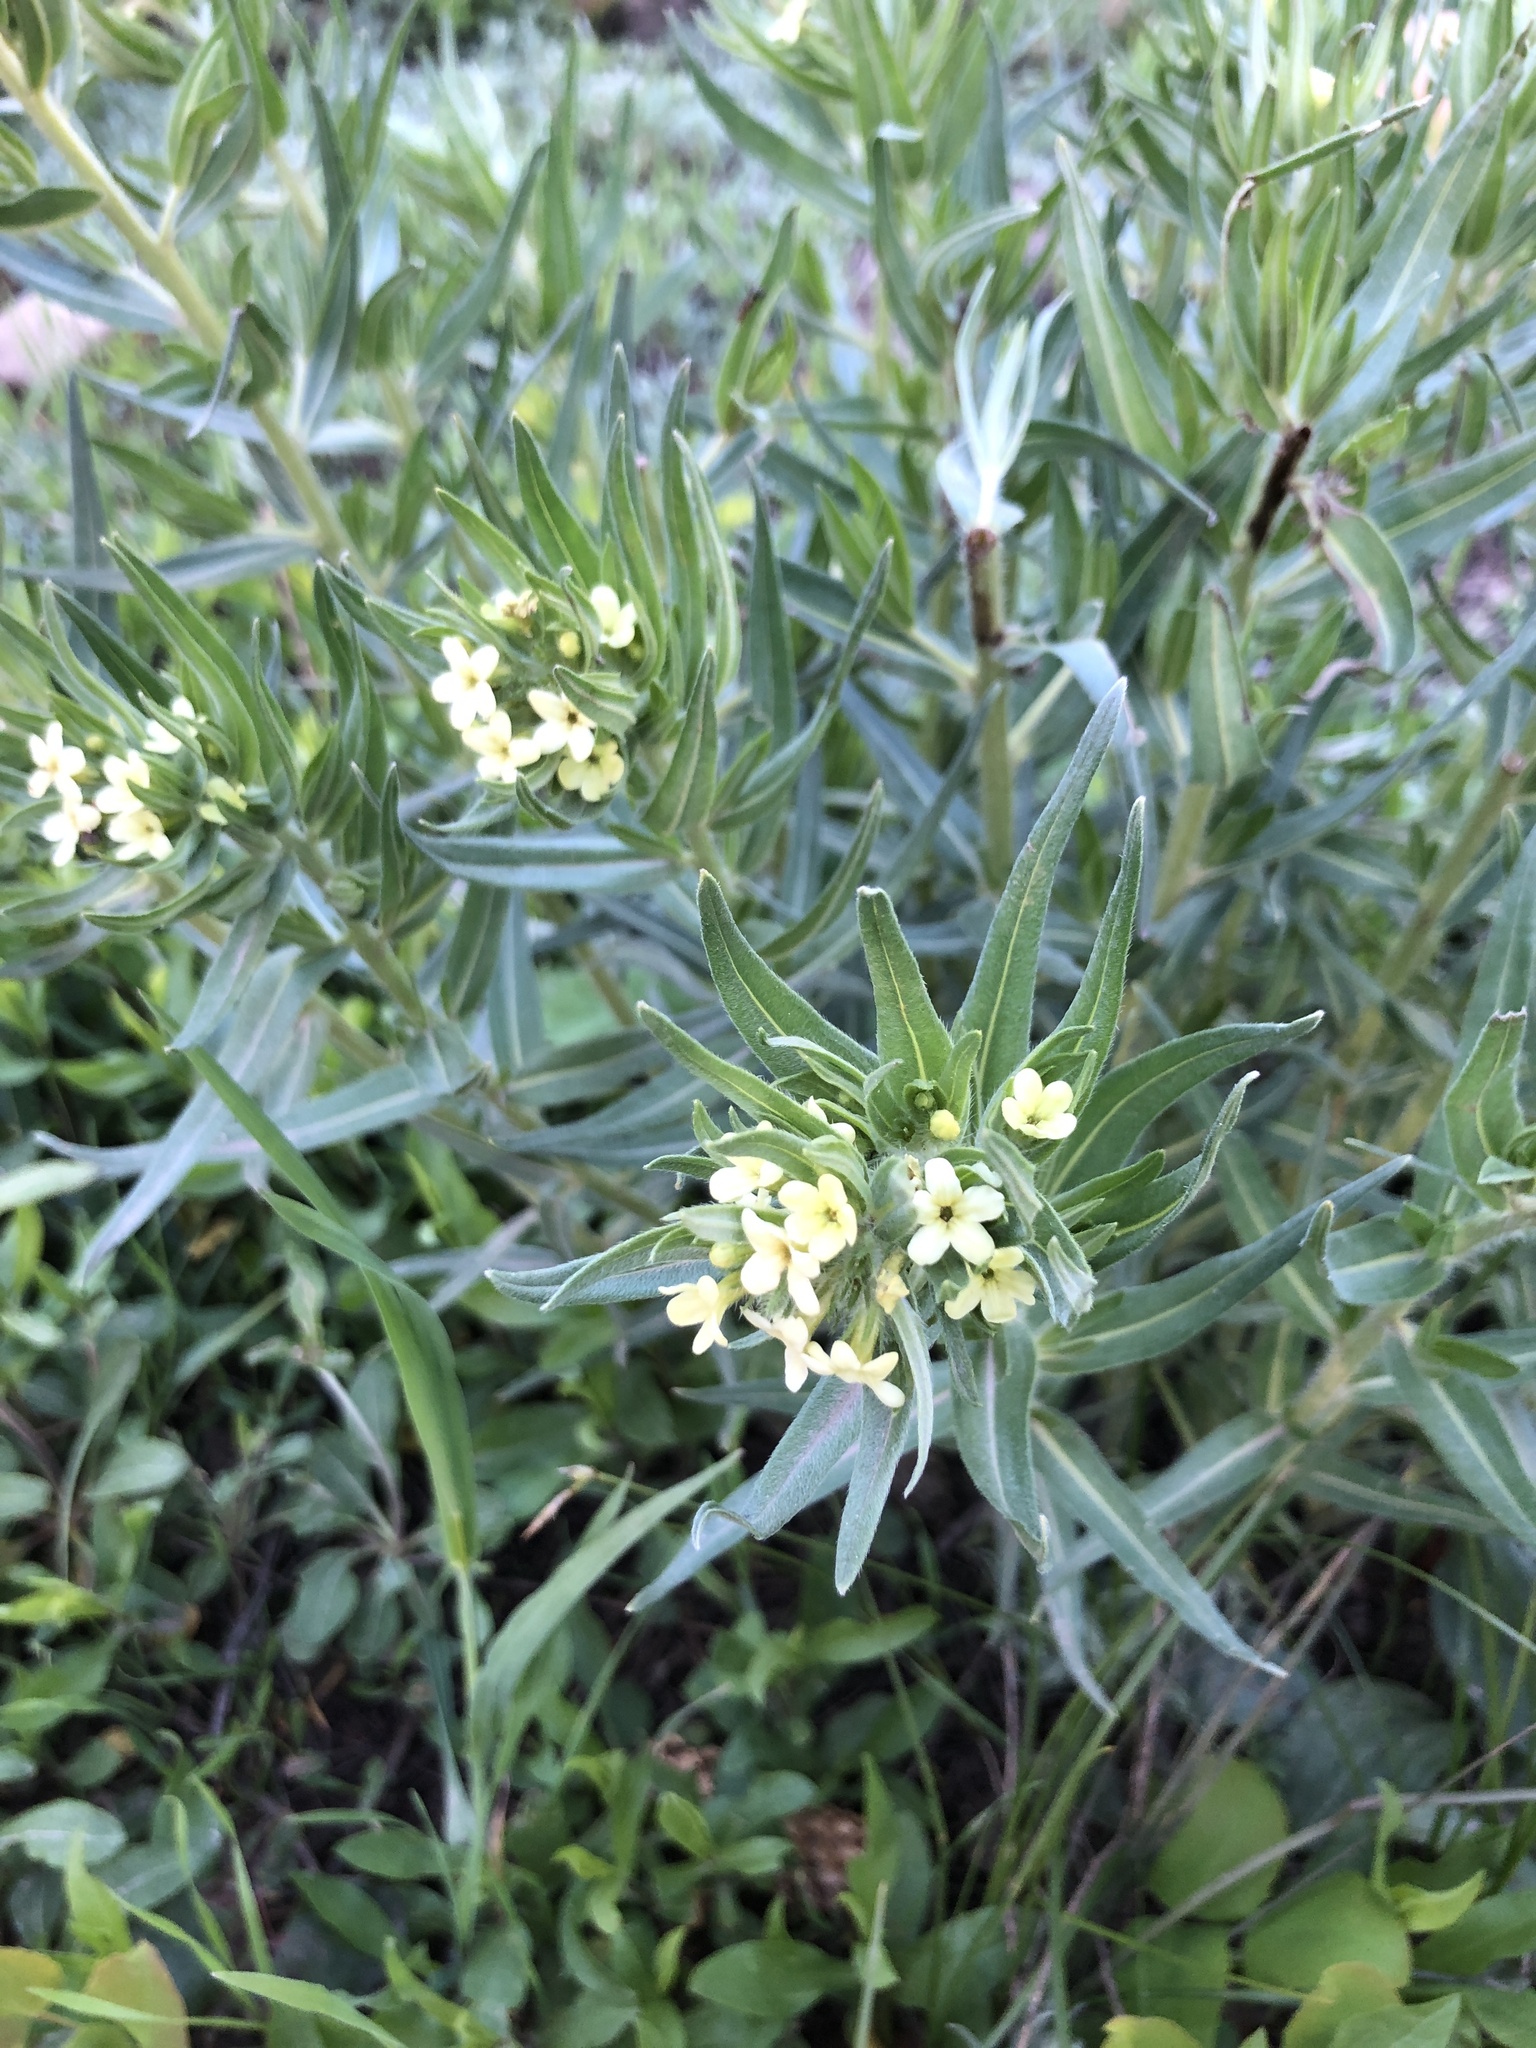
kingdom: Plantae
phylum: Tracheophyta
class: Magnoliopsida
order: Boraginales
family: Boraginaceae
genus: Lithospermum
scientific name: Lithospermum ruderale
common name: Western gromwell
